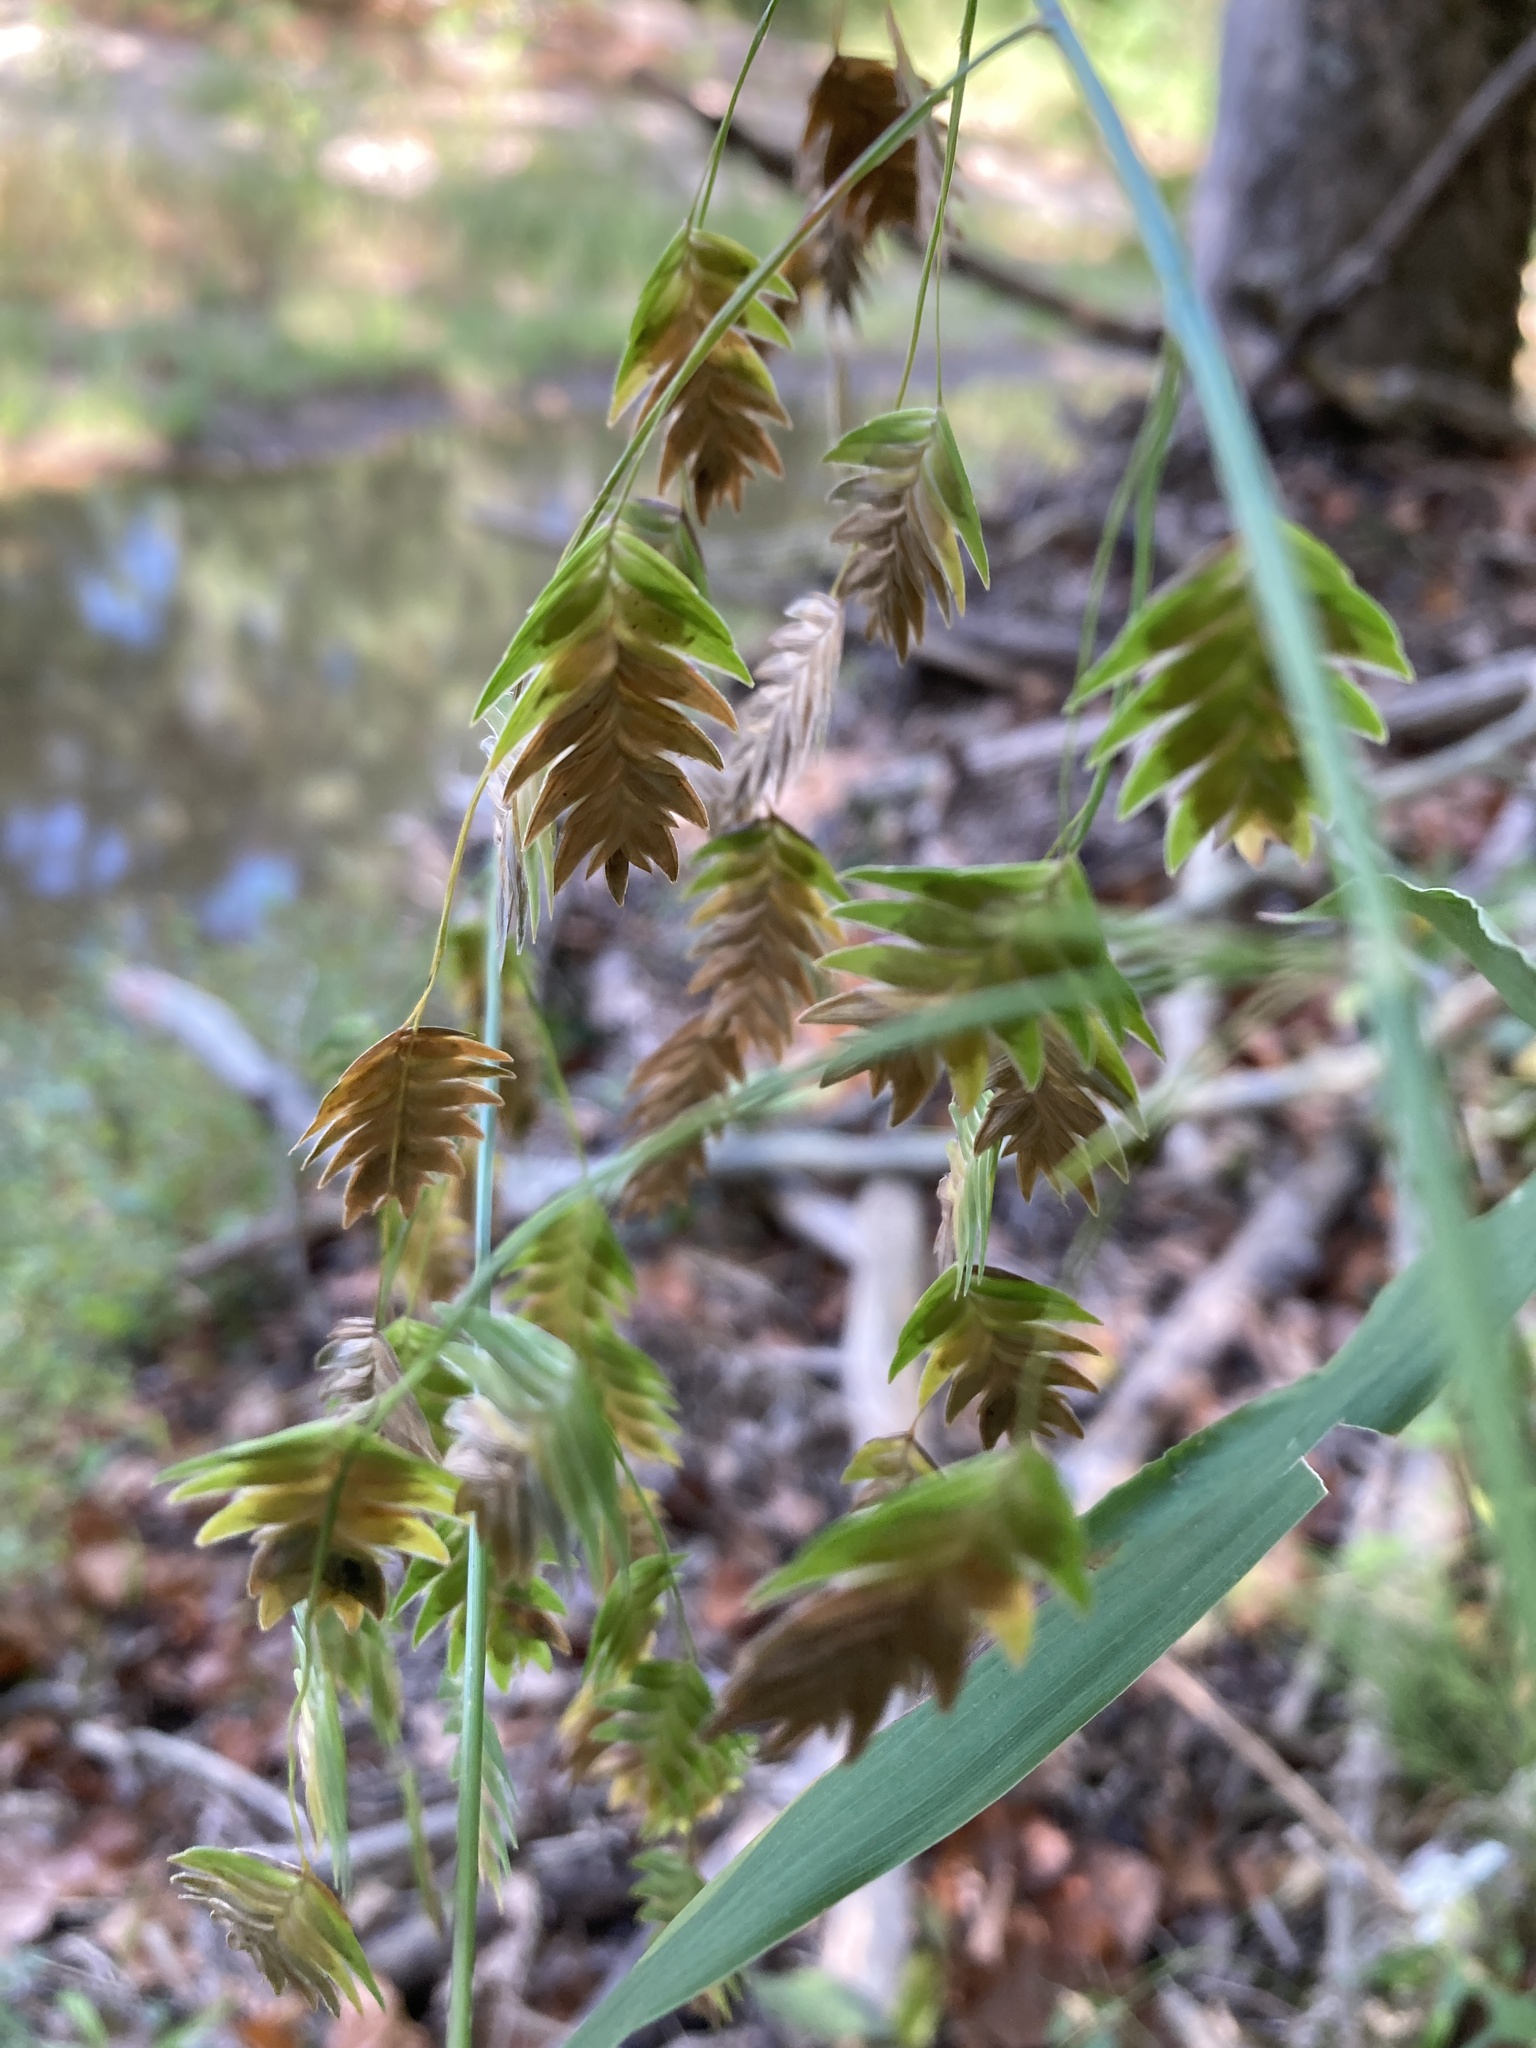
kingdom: Plantae
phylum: Tracheophyta
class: Liliopsida
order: Poales
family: Poaceae
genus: Chasmanthium
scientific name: Chasmanthium latifolium
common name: Broad-leaved chasmanthium
